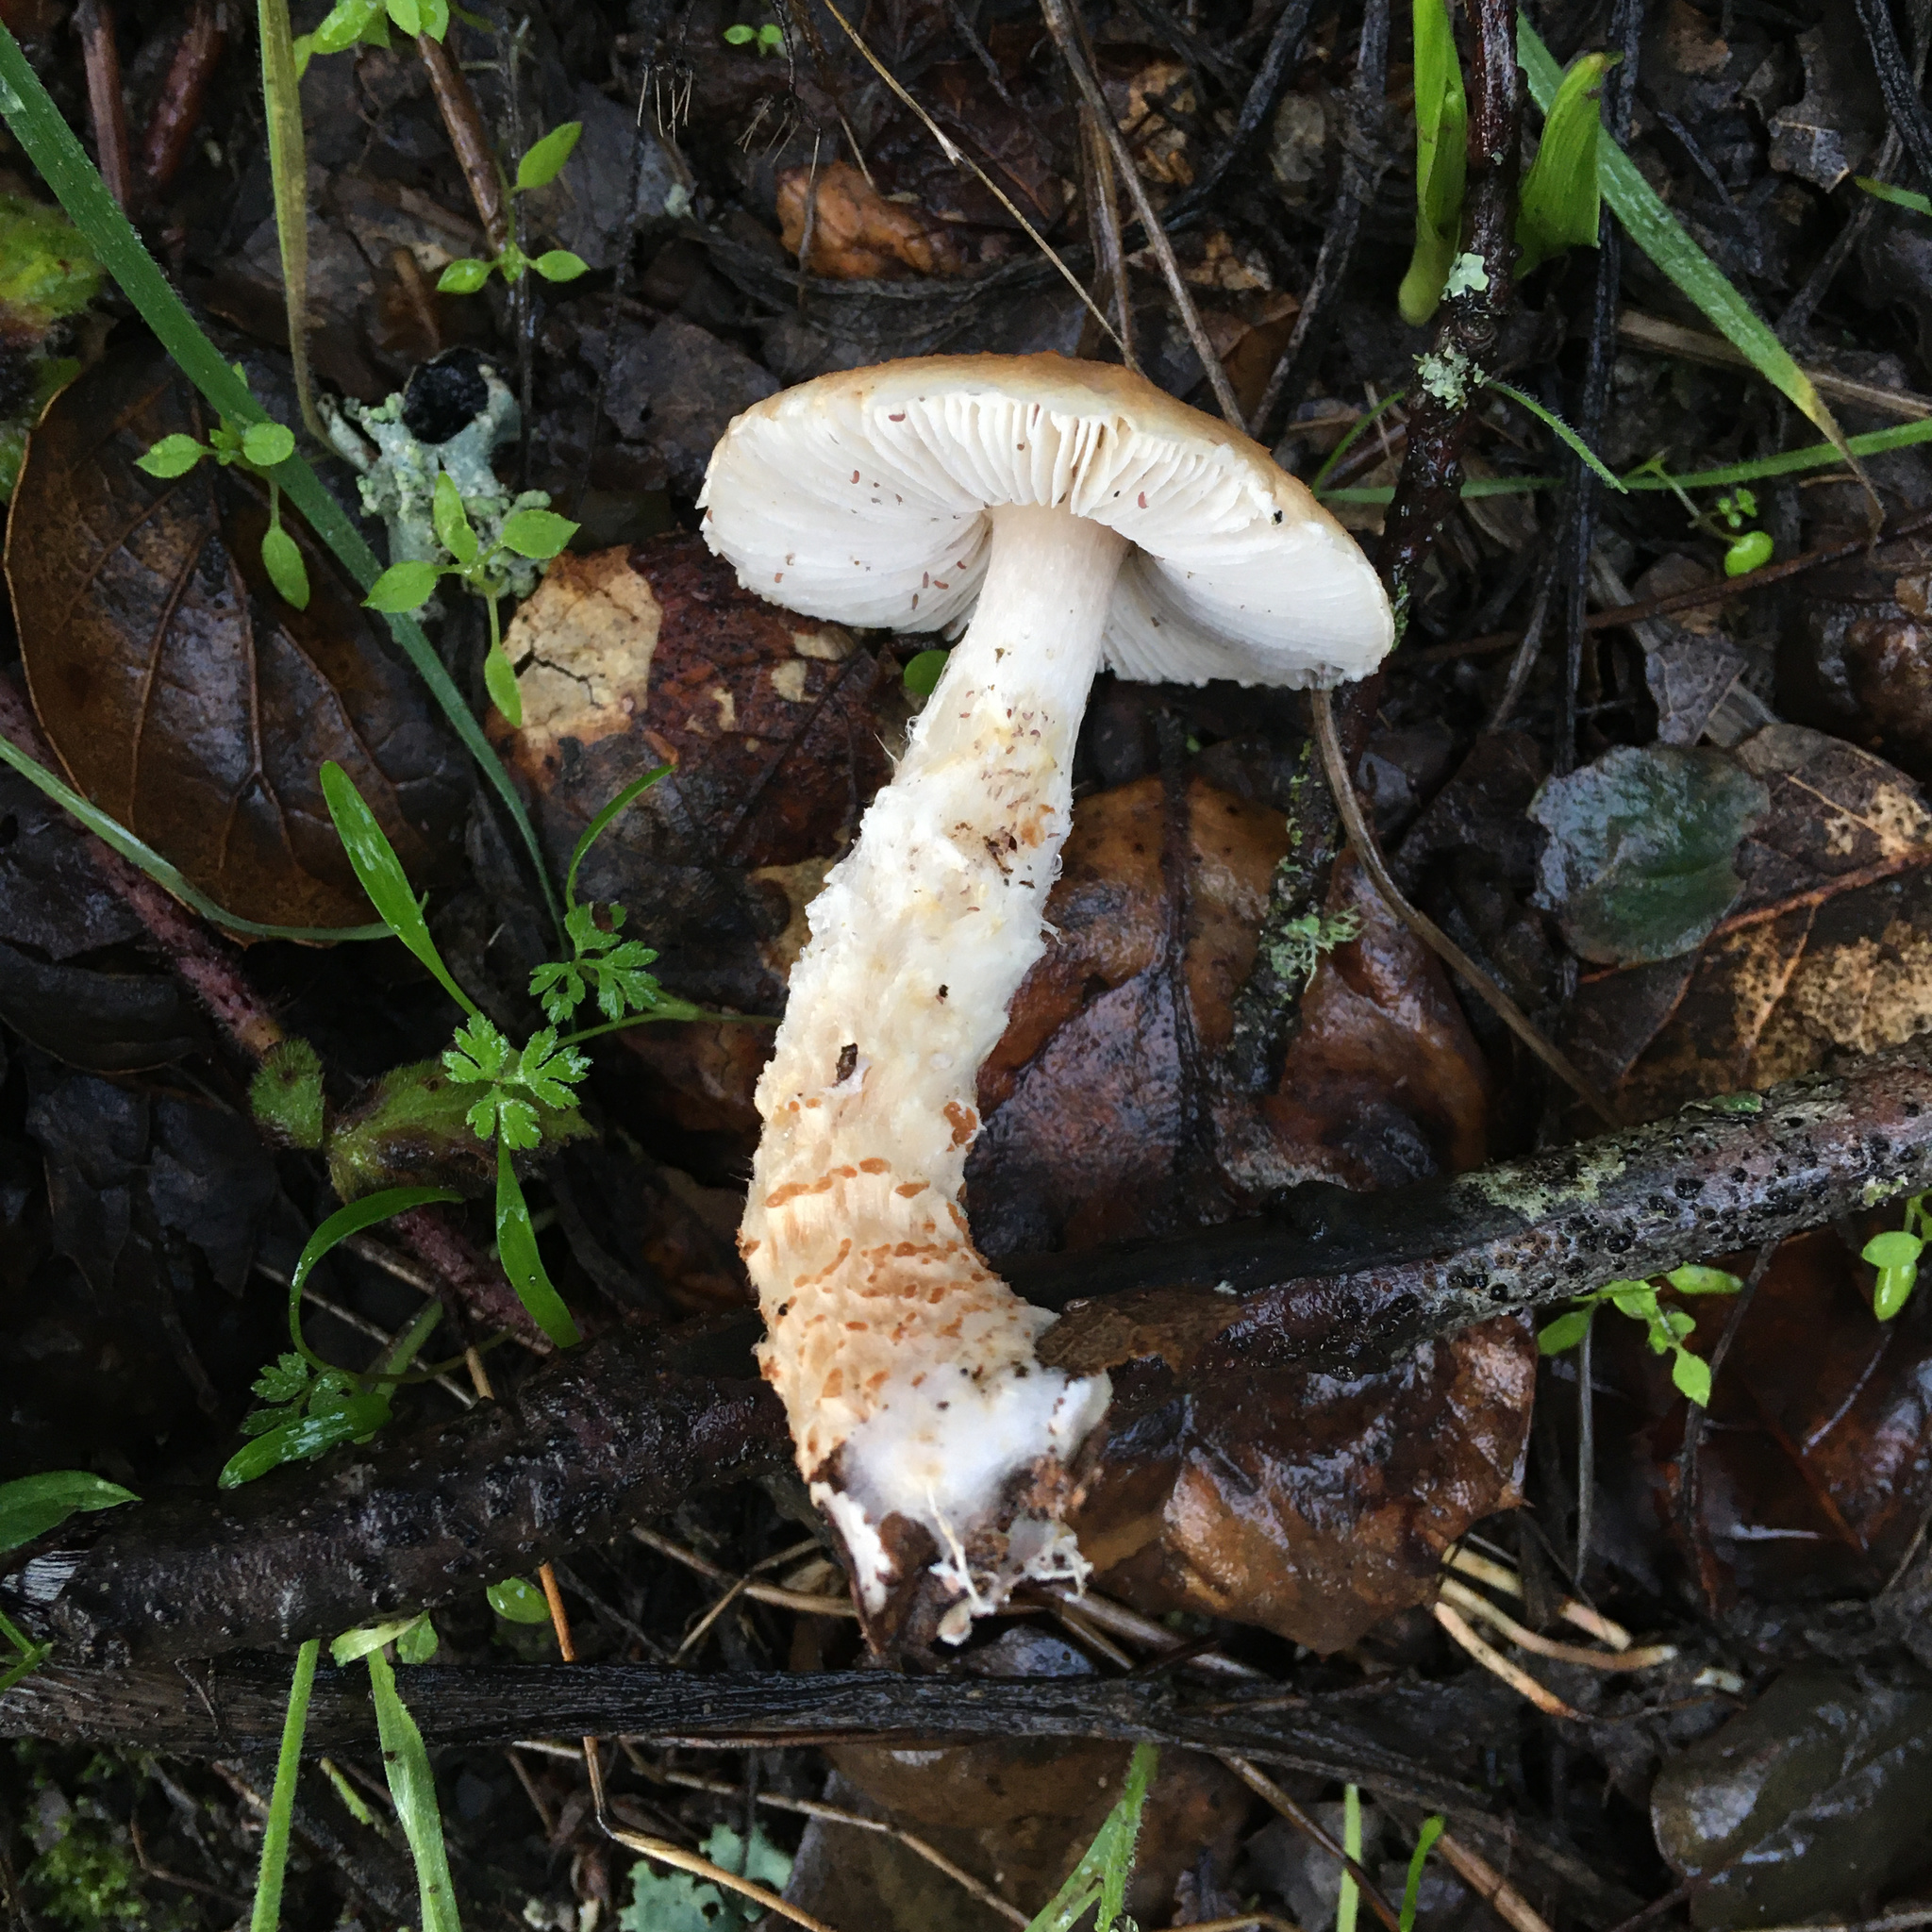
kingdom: Fungi
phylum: Basidiomycota
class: Agaricomycetes
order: Agaricales
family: Agaricaceae
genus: Lepiota
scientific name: Lepiota spheniscispora
